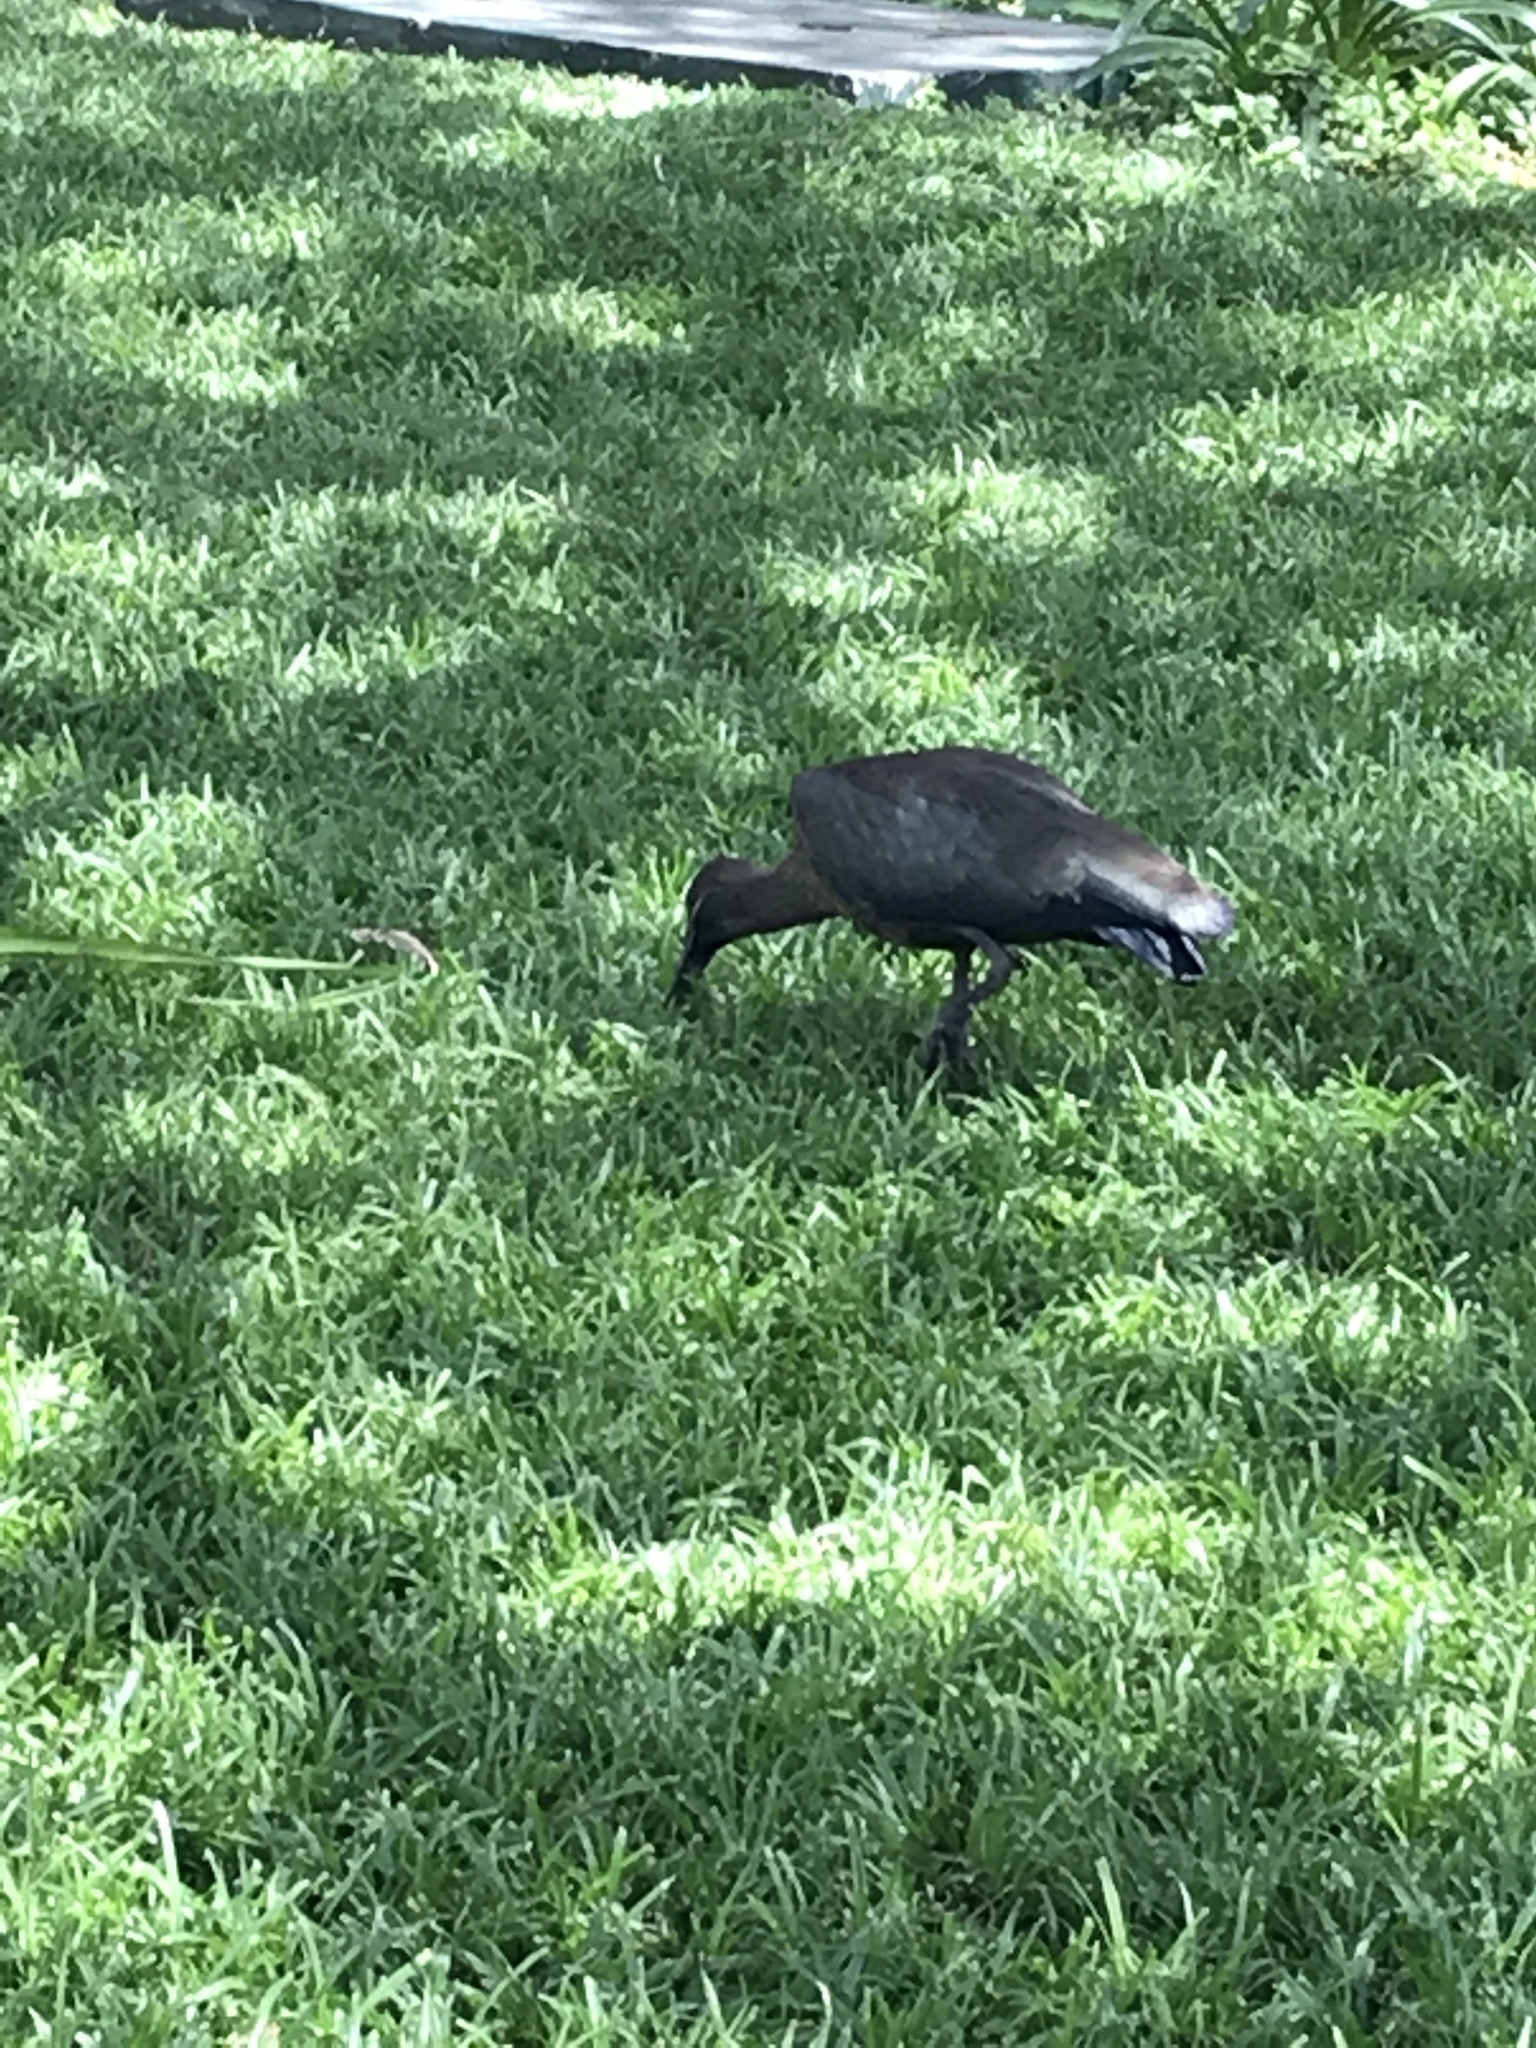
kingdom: Animalia
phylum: Chordata
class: Aves
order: Pelecaniformes
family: Threskiornithidae
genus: Bostrychia
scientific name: Bostrychia hagedash
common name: Hadada ibis
